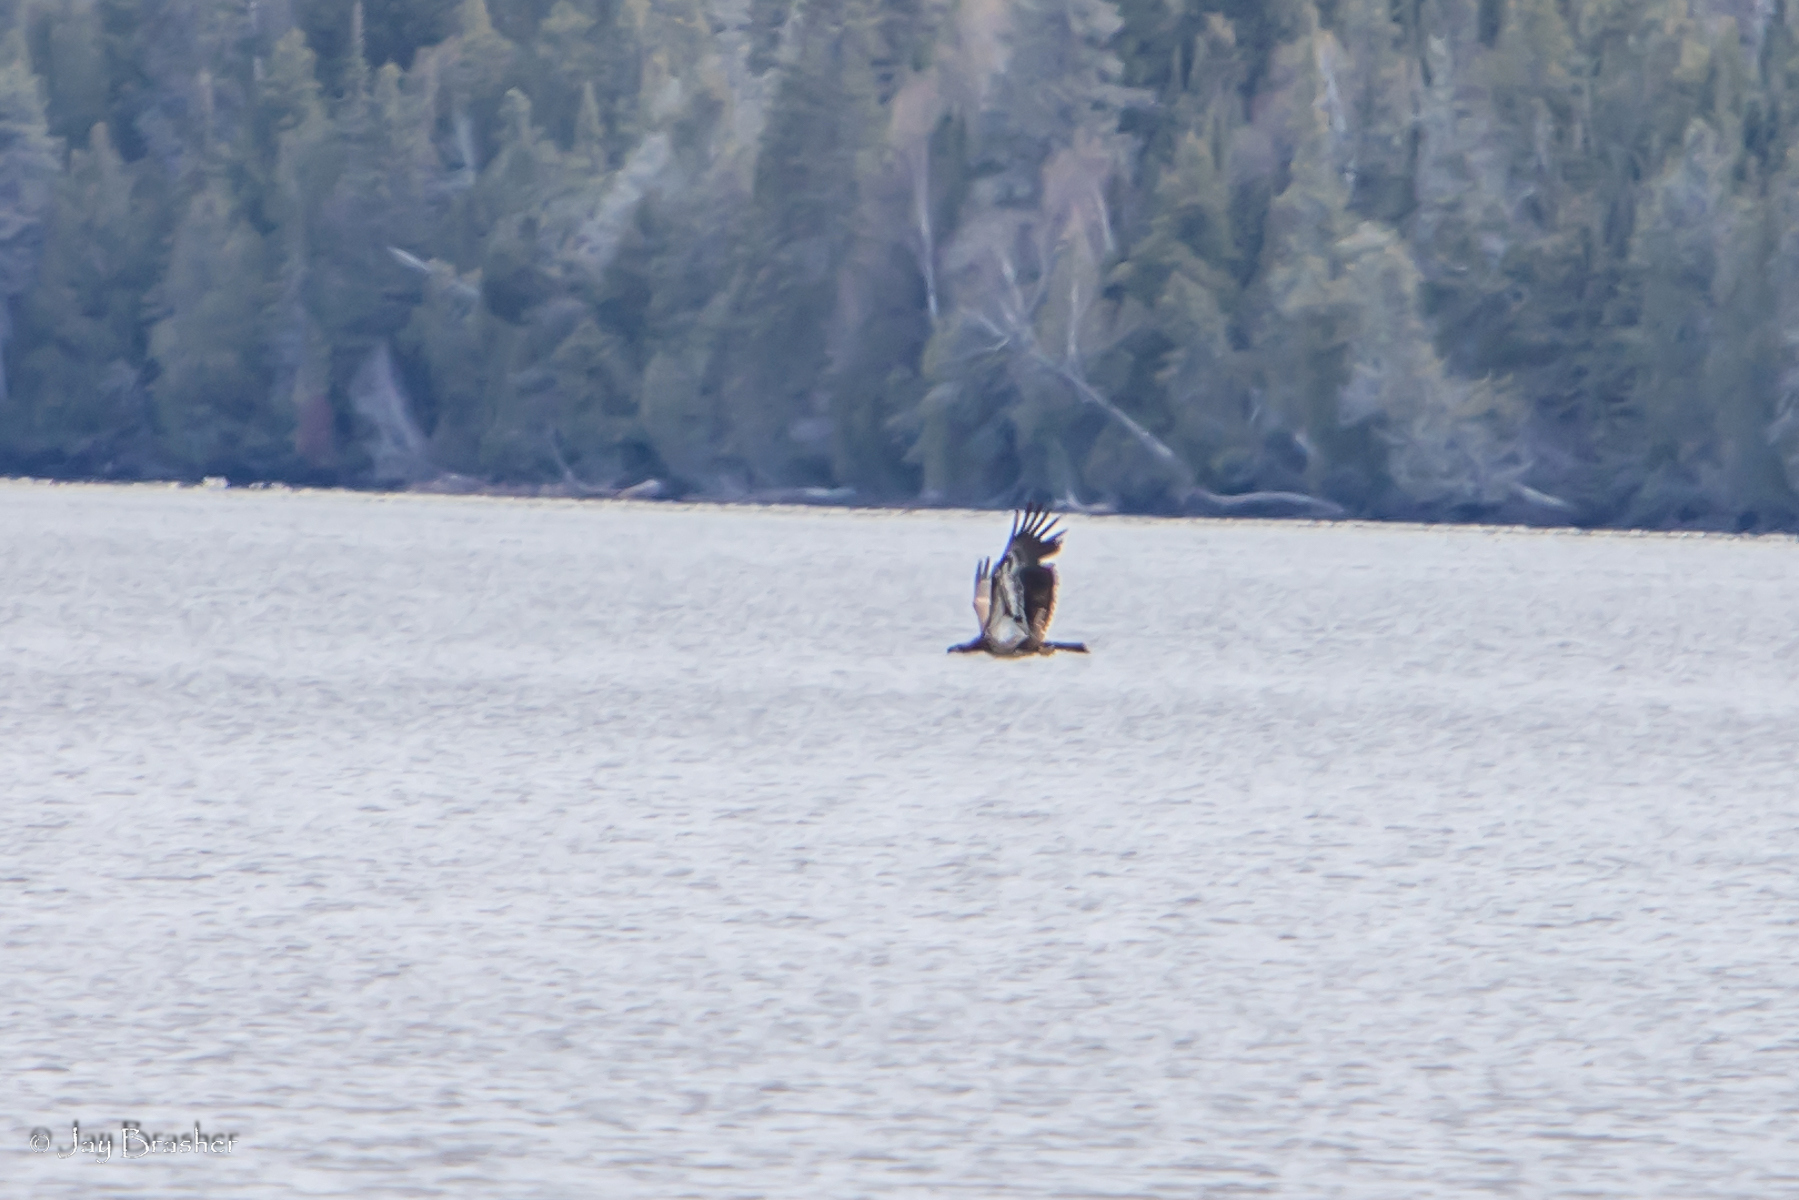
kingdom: Animalia
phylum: Chordata
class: Aves
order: Accipitriformes
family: Accipitridae
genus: Haliaeetus
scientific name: Haliaeetus leucocephalus
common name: Bald eagle
